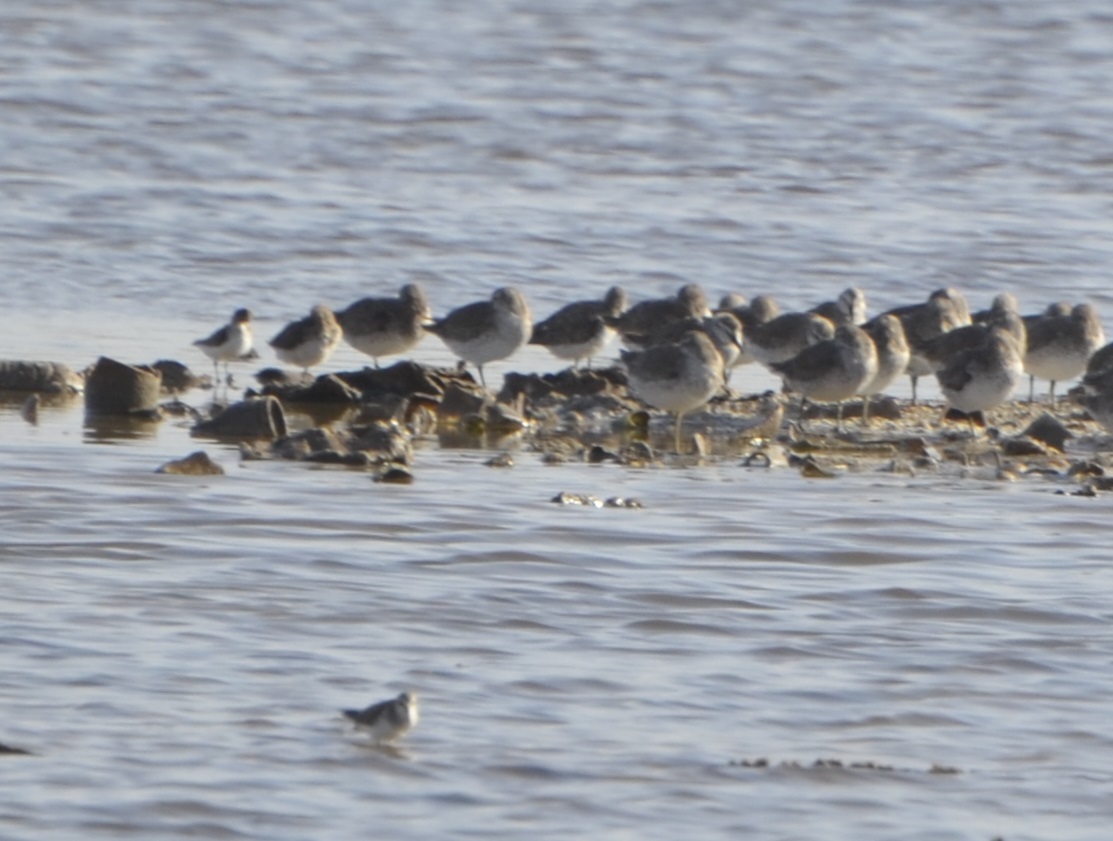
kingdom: Animalia
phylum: Chordata
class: Aves
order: Charadriiformes
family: Scolopacidae
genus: Calidris
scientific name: Calidris canutus
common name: Red knot
